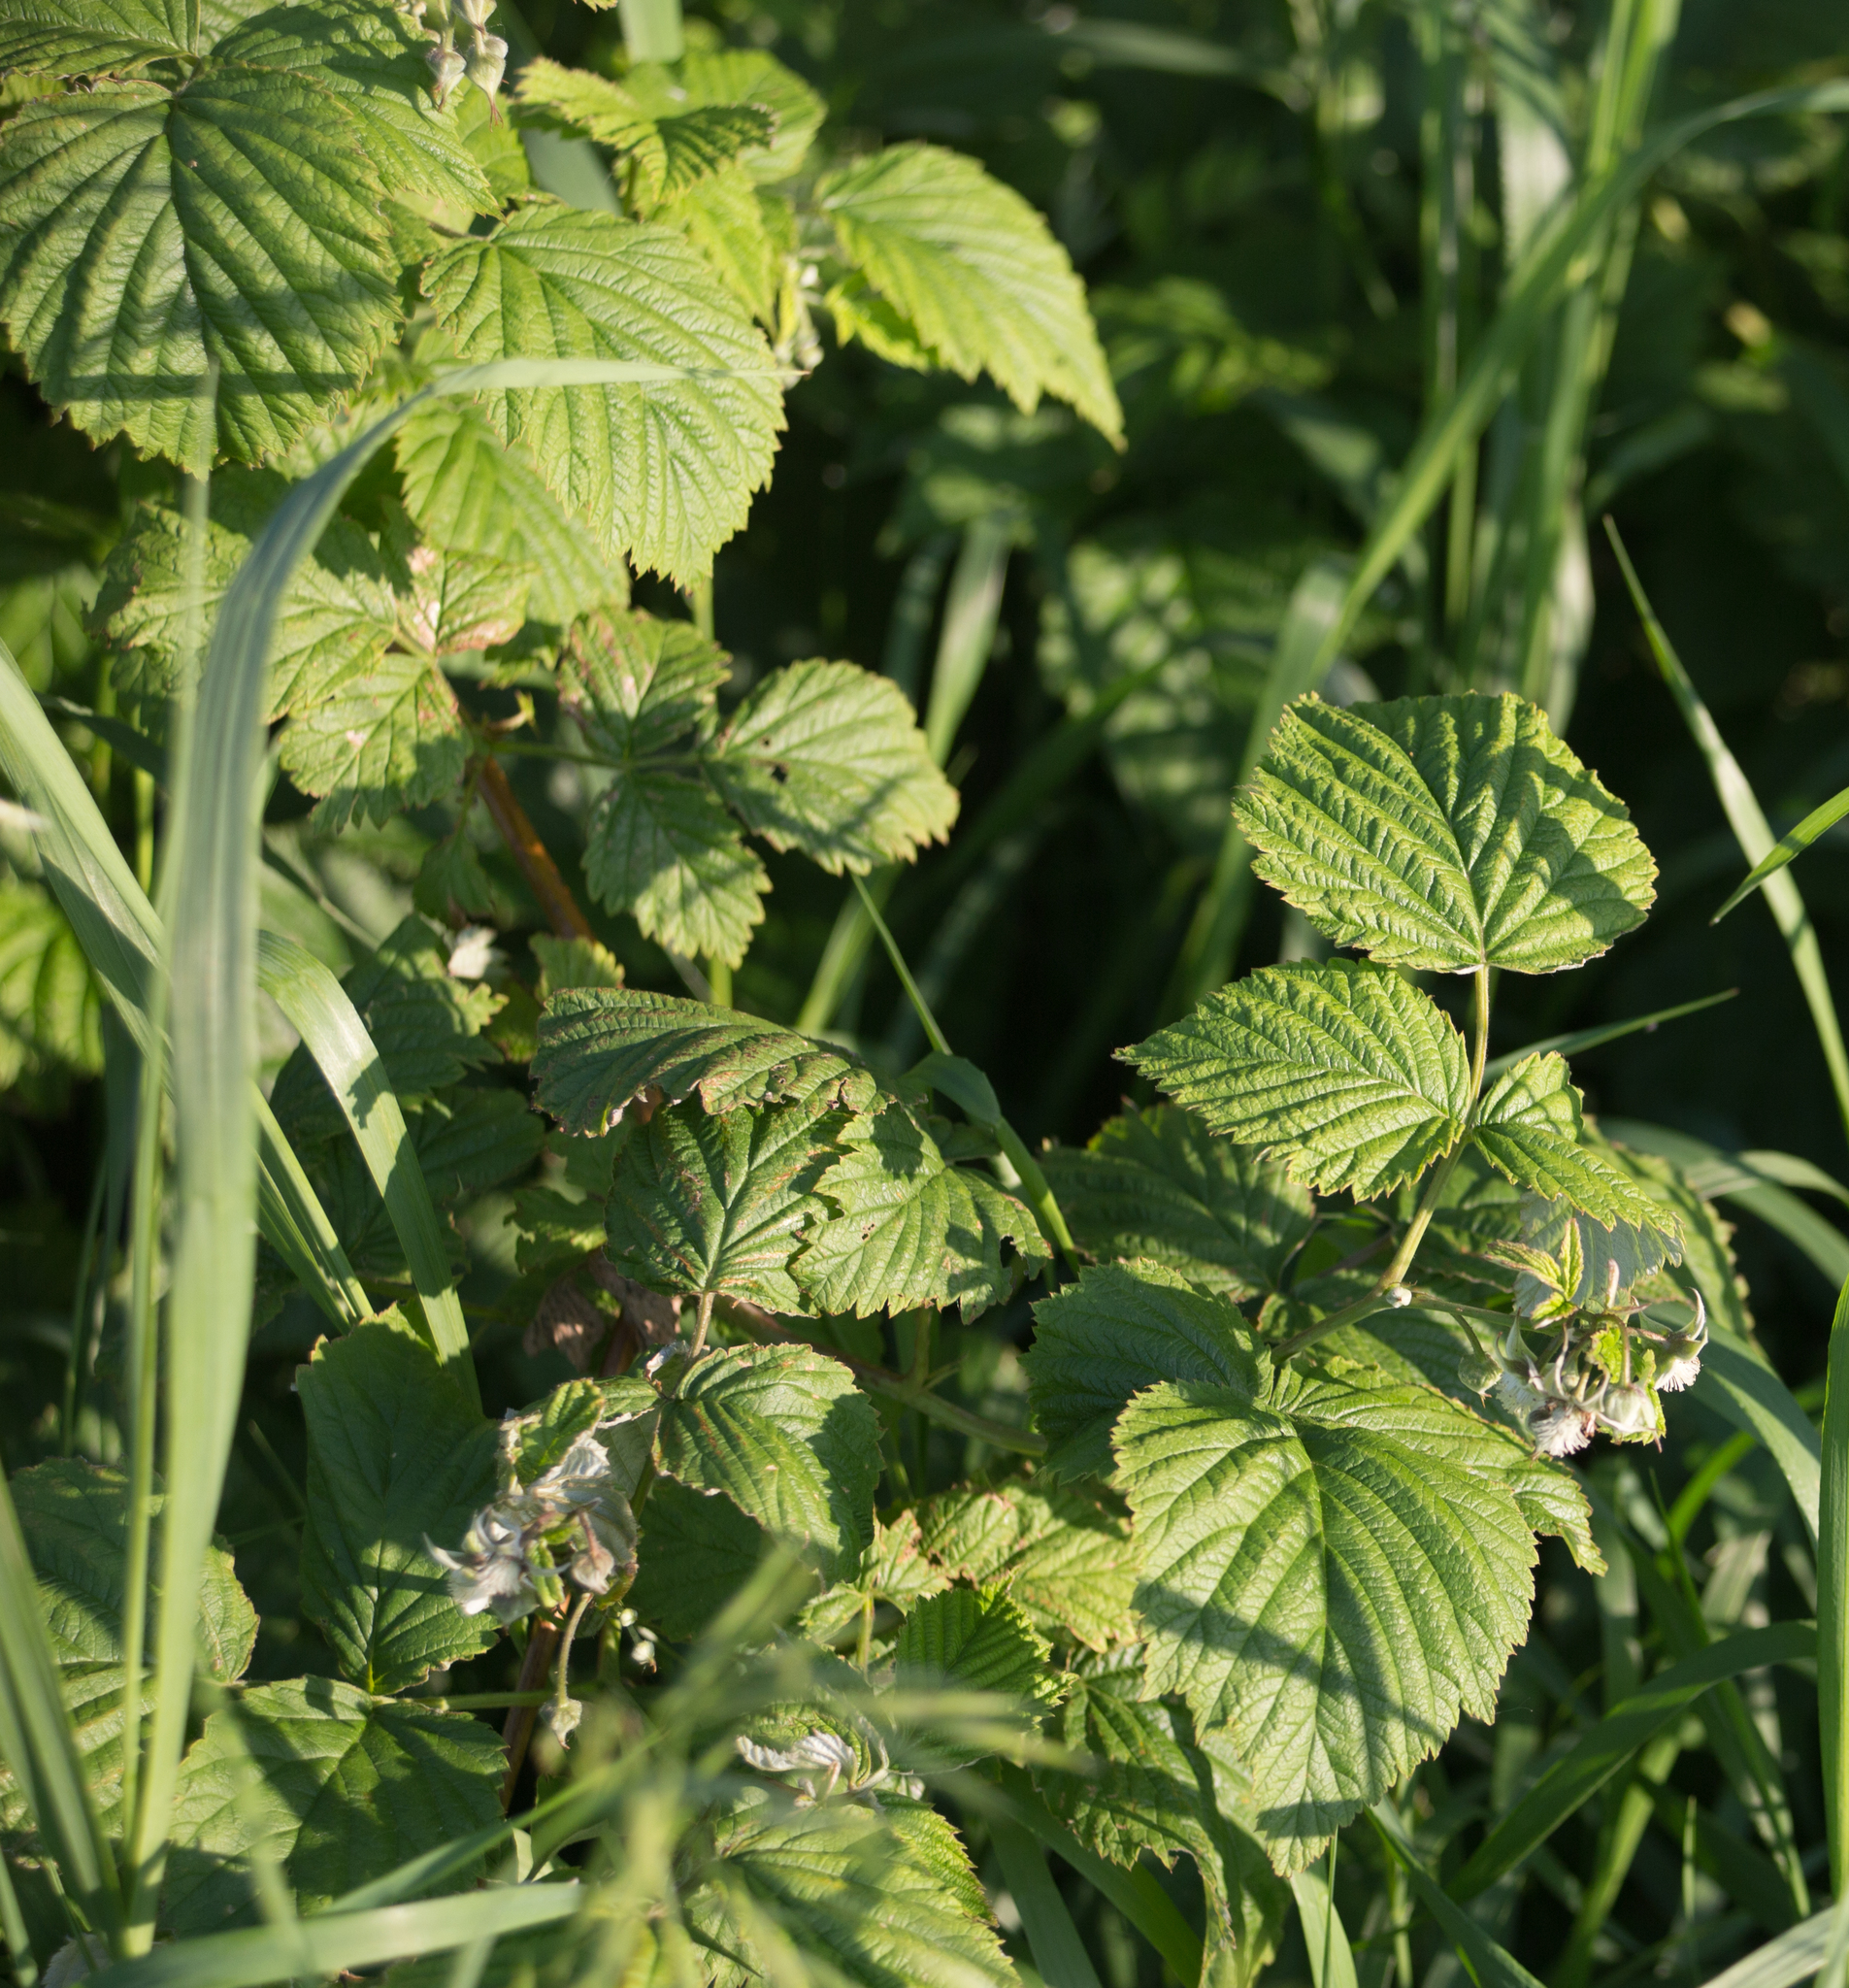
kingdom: Plantae
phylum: Tracheophyta
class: Magnoliopsida
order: Rosales
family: Rosaceae
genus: Rubus
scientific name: Rubus idaeus
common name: Raspberry
